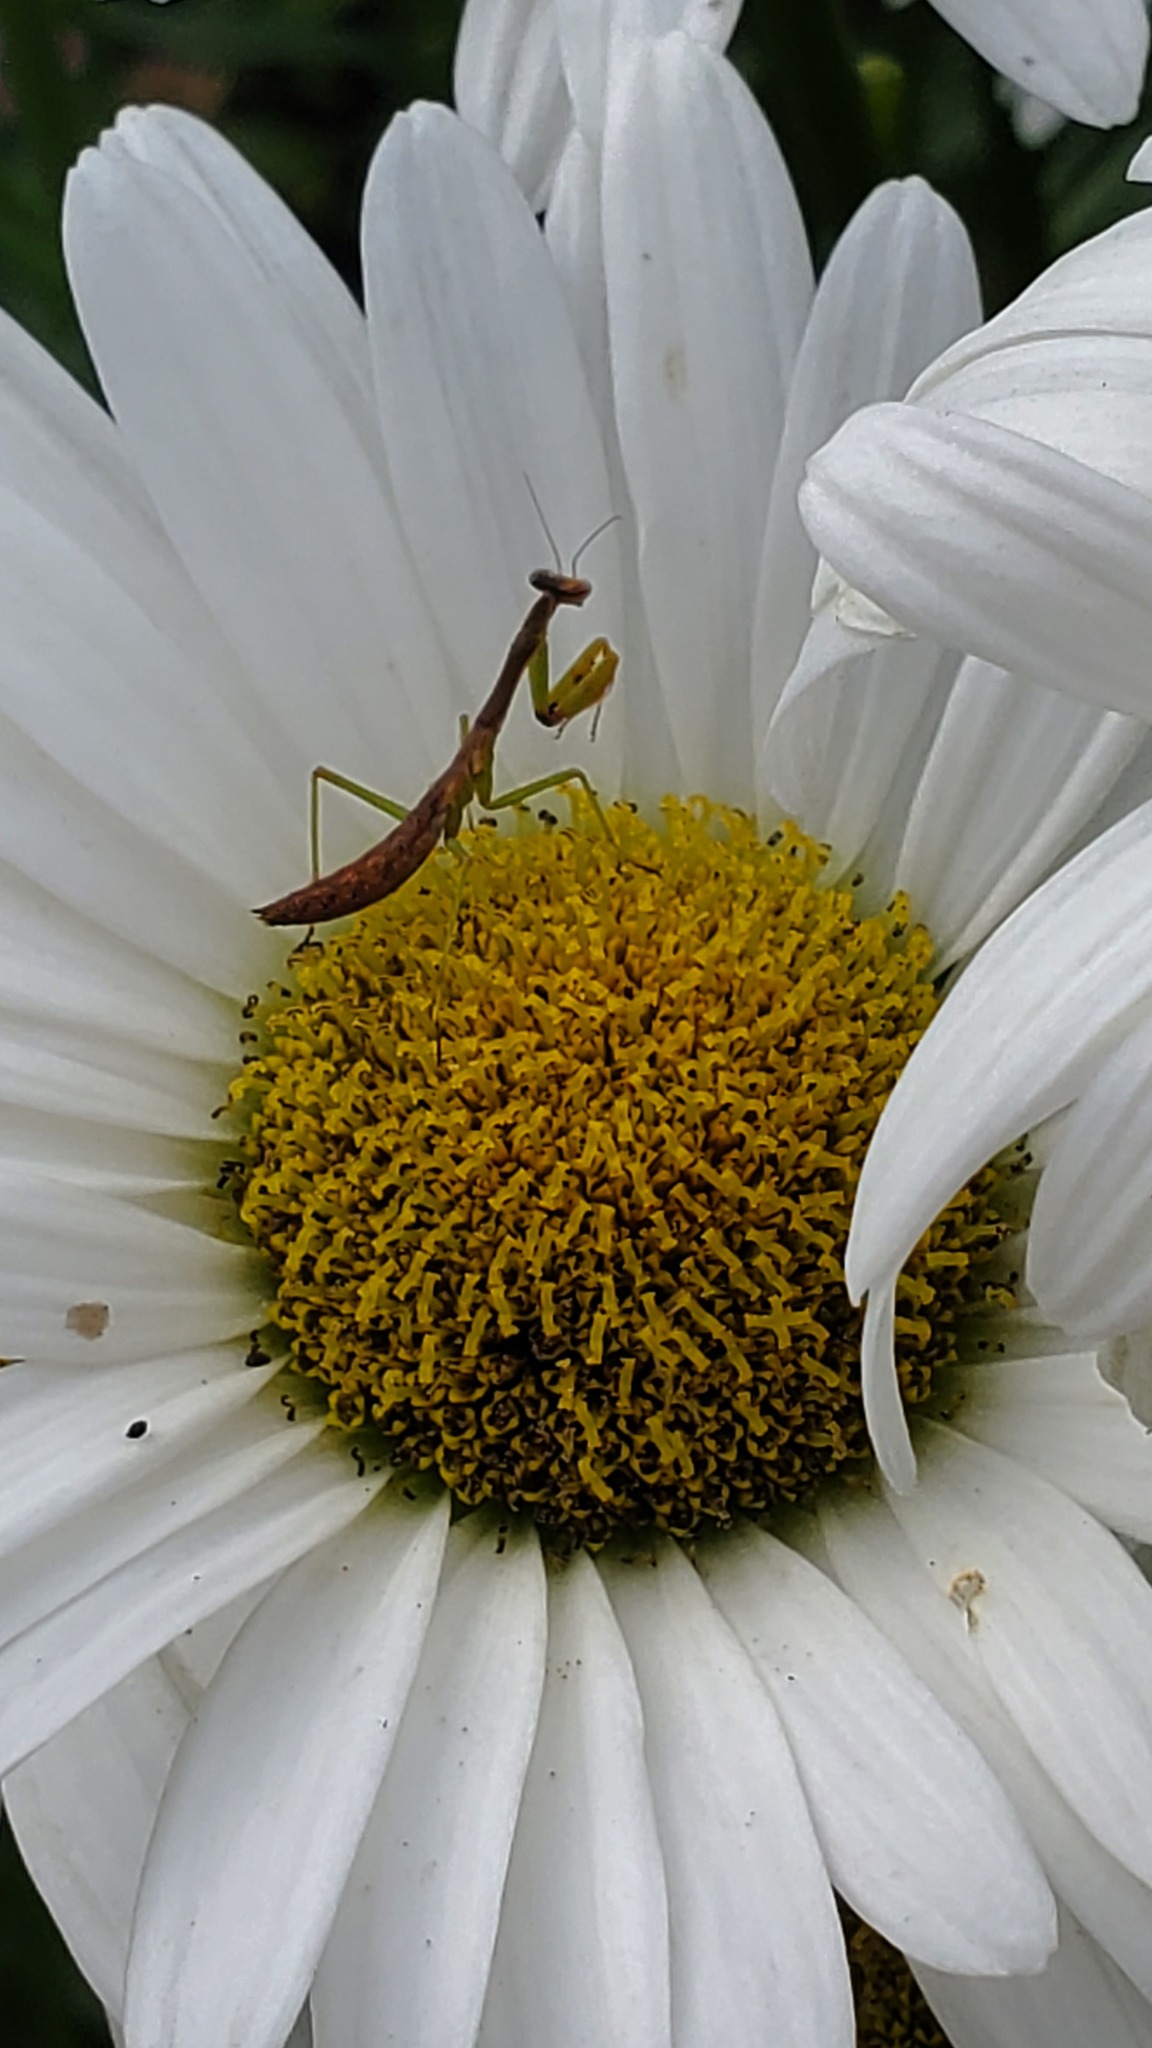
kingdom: Animalia
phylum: Arthropoda
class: Insecta
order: Mantodea
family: Mantidae
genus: Stagmomantis
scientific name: Stagmomantis carolina
